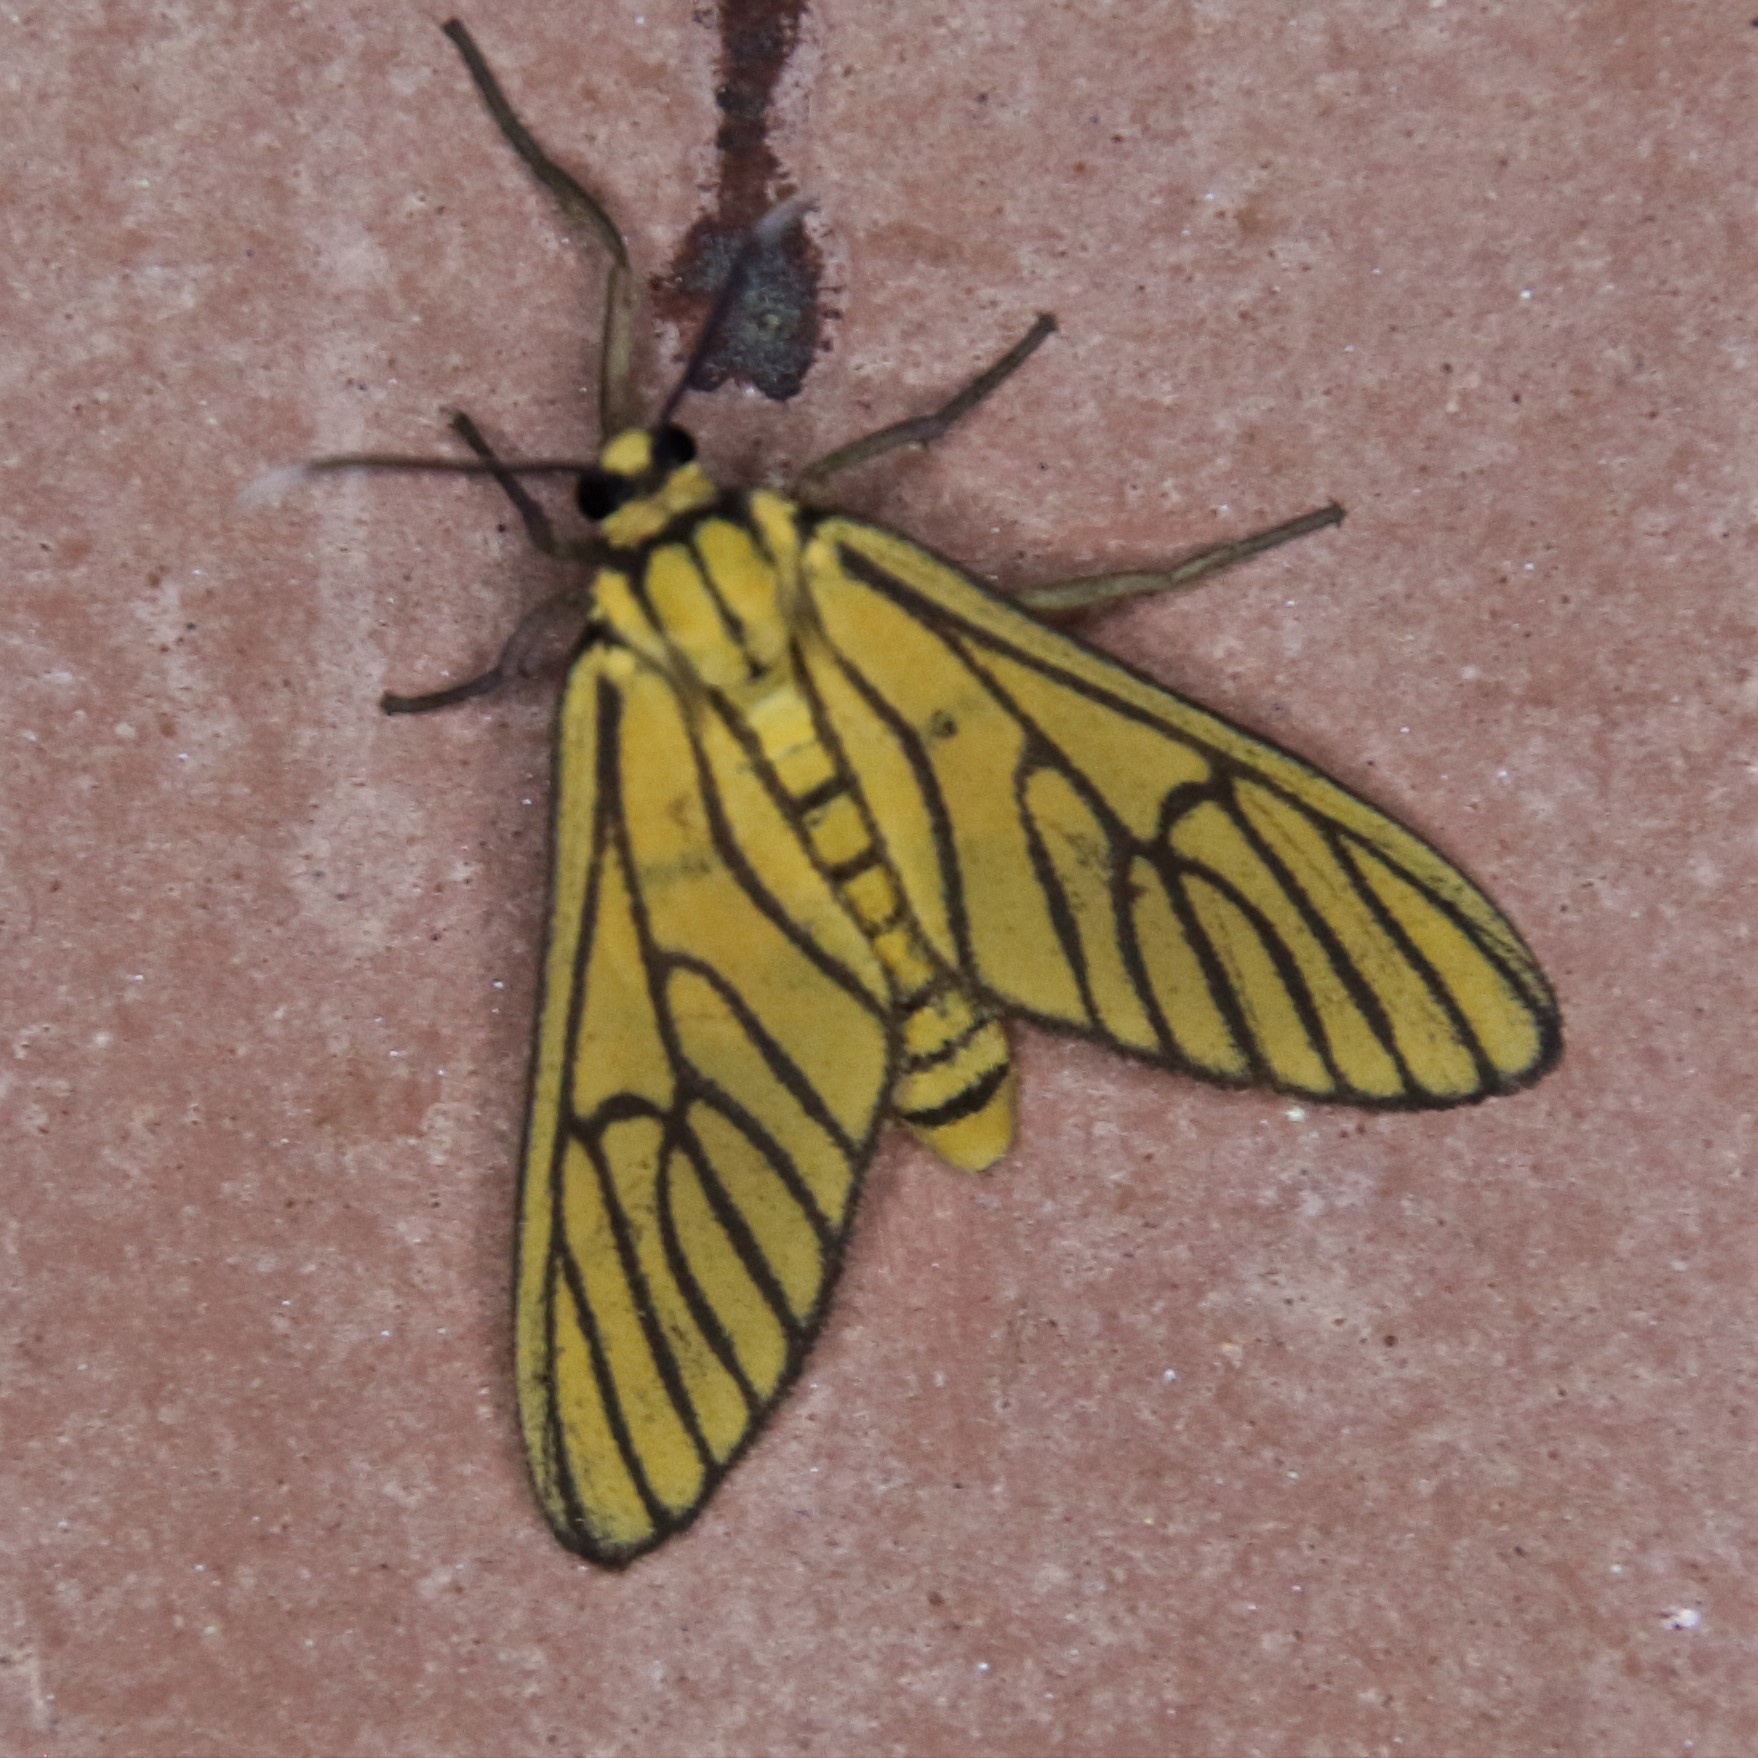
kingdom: Animalia
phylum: Arthropoda
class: Insecta
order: Lepidoptera
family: Erebidae
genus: Amata
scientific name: Amata tigrina
